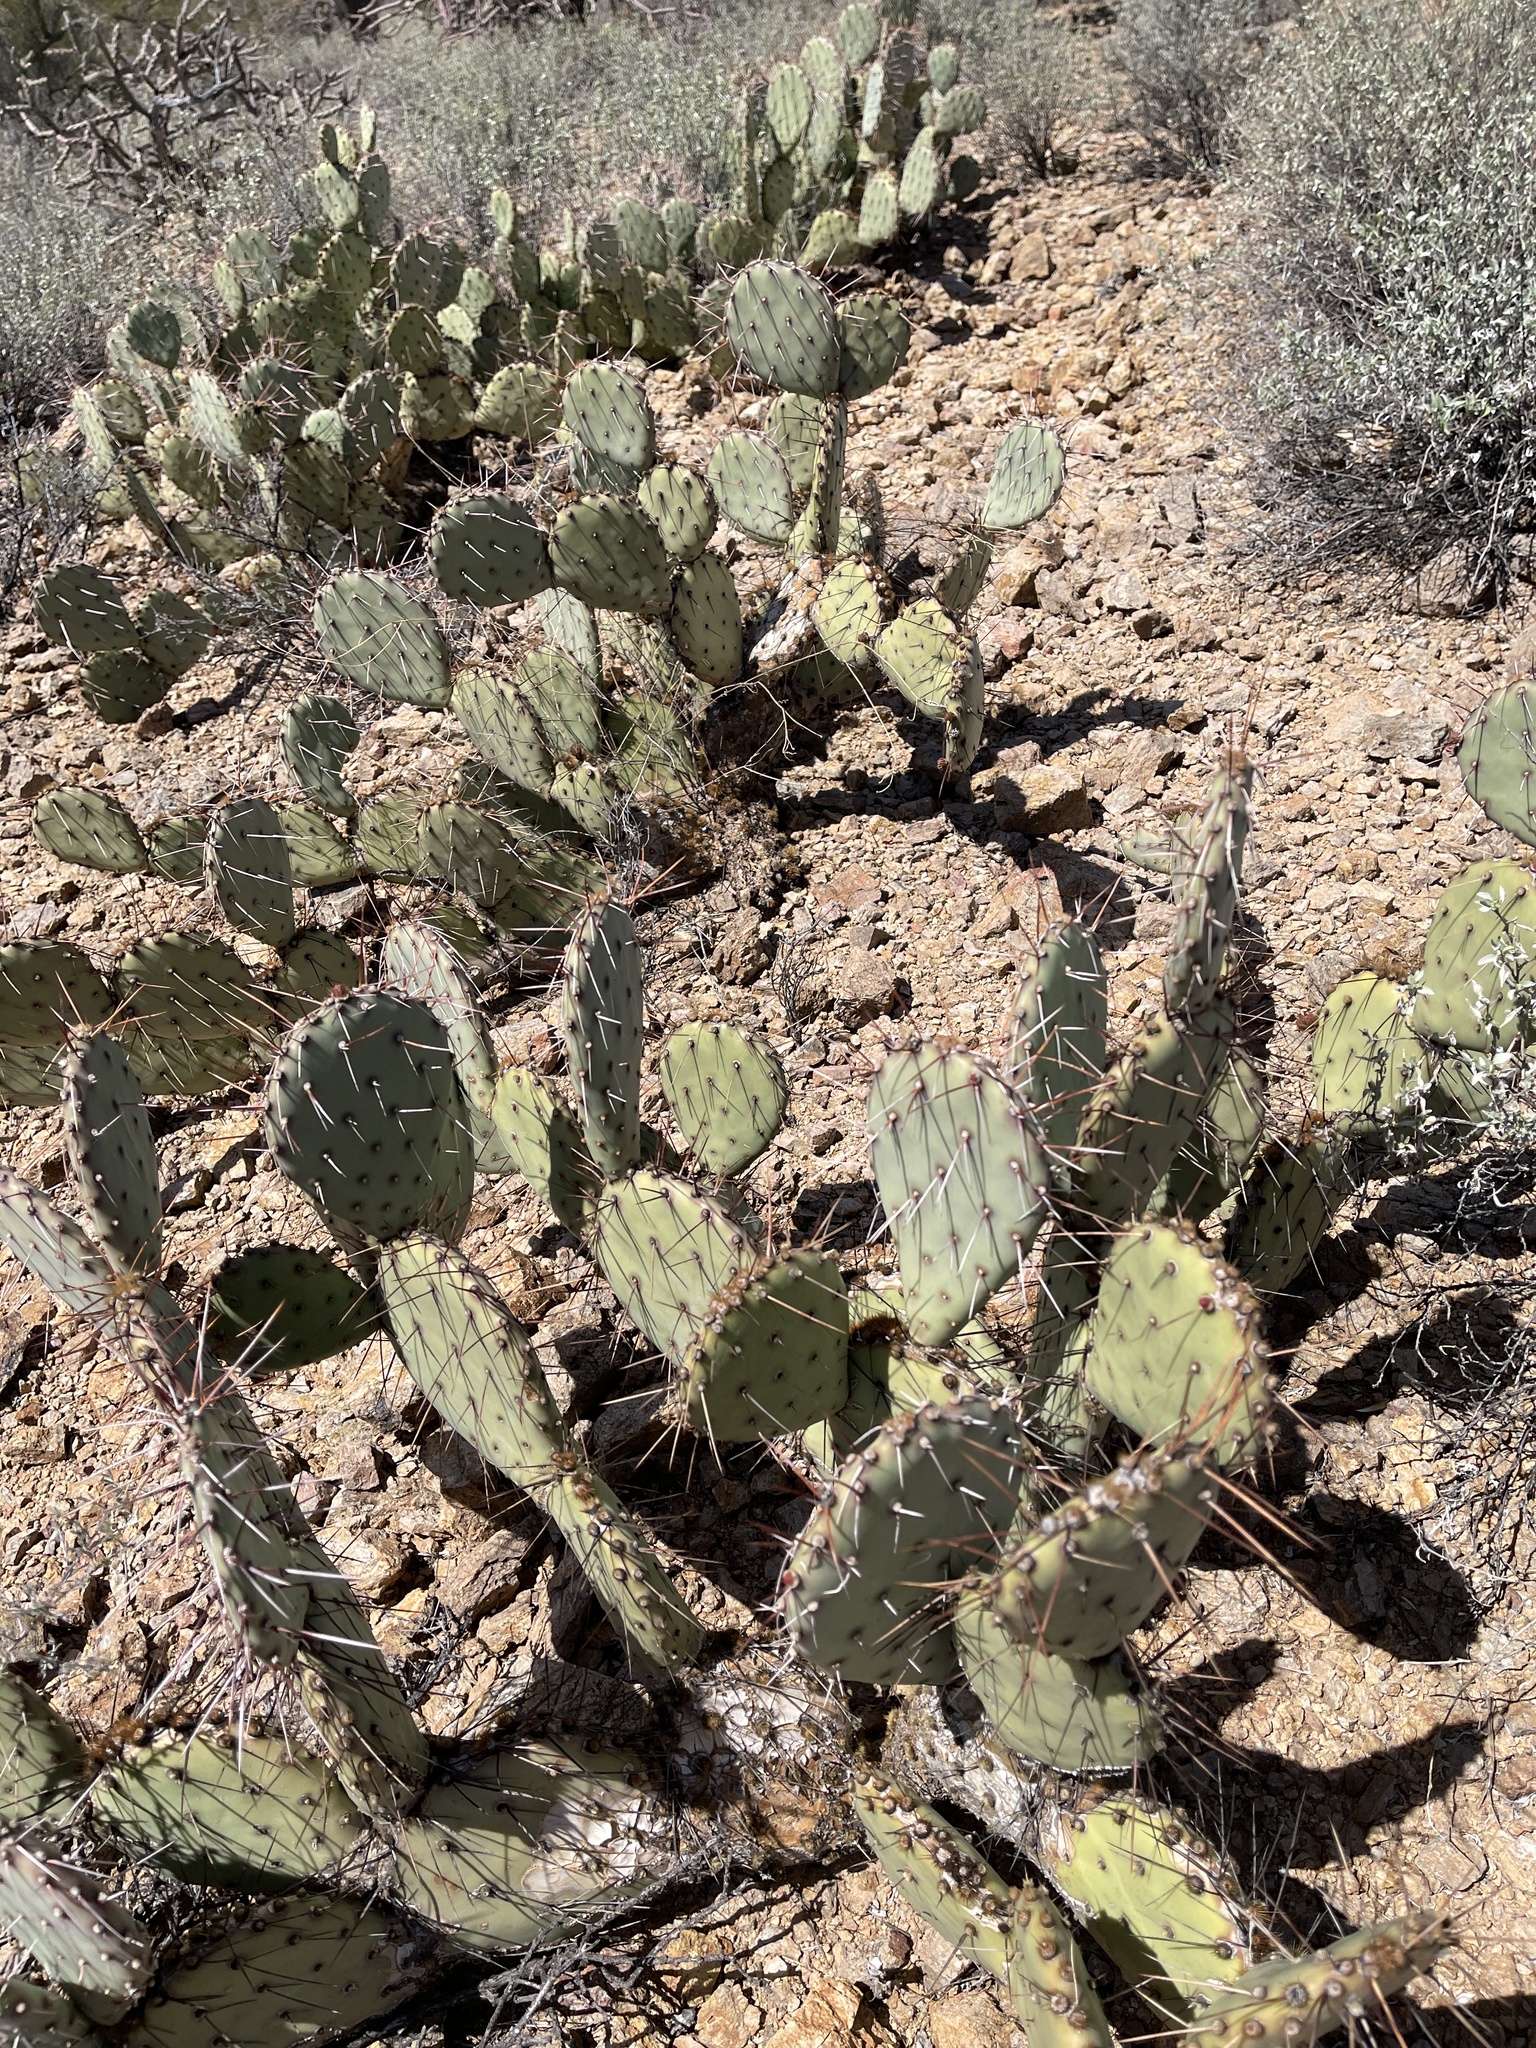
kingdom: Plantae
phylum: Tracheophyta
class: Magnoliopsida
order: Caryophyllales
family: Cactaceae
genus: Opuntia
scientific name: Opuntia phaeacantha
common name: New mexico prickly-pear
